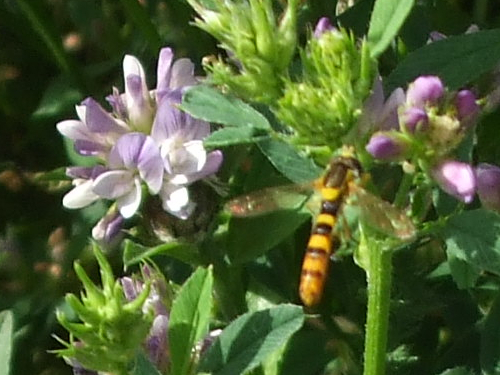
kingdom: Animalia
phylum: Arthropoda
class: Insecta
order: Diptera
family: Syrphidae
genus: Sphaerophoria
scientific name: Sphaerophoria scripta
